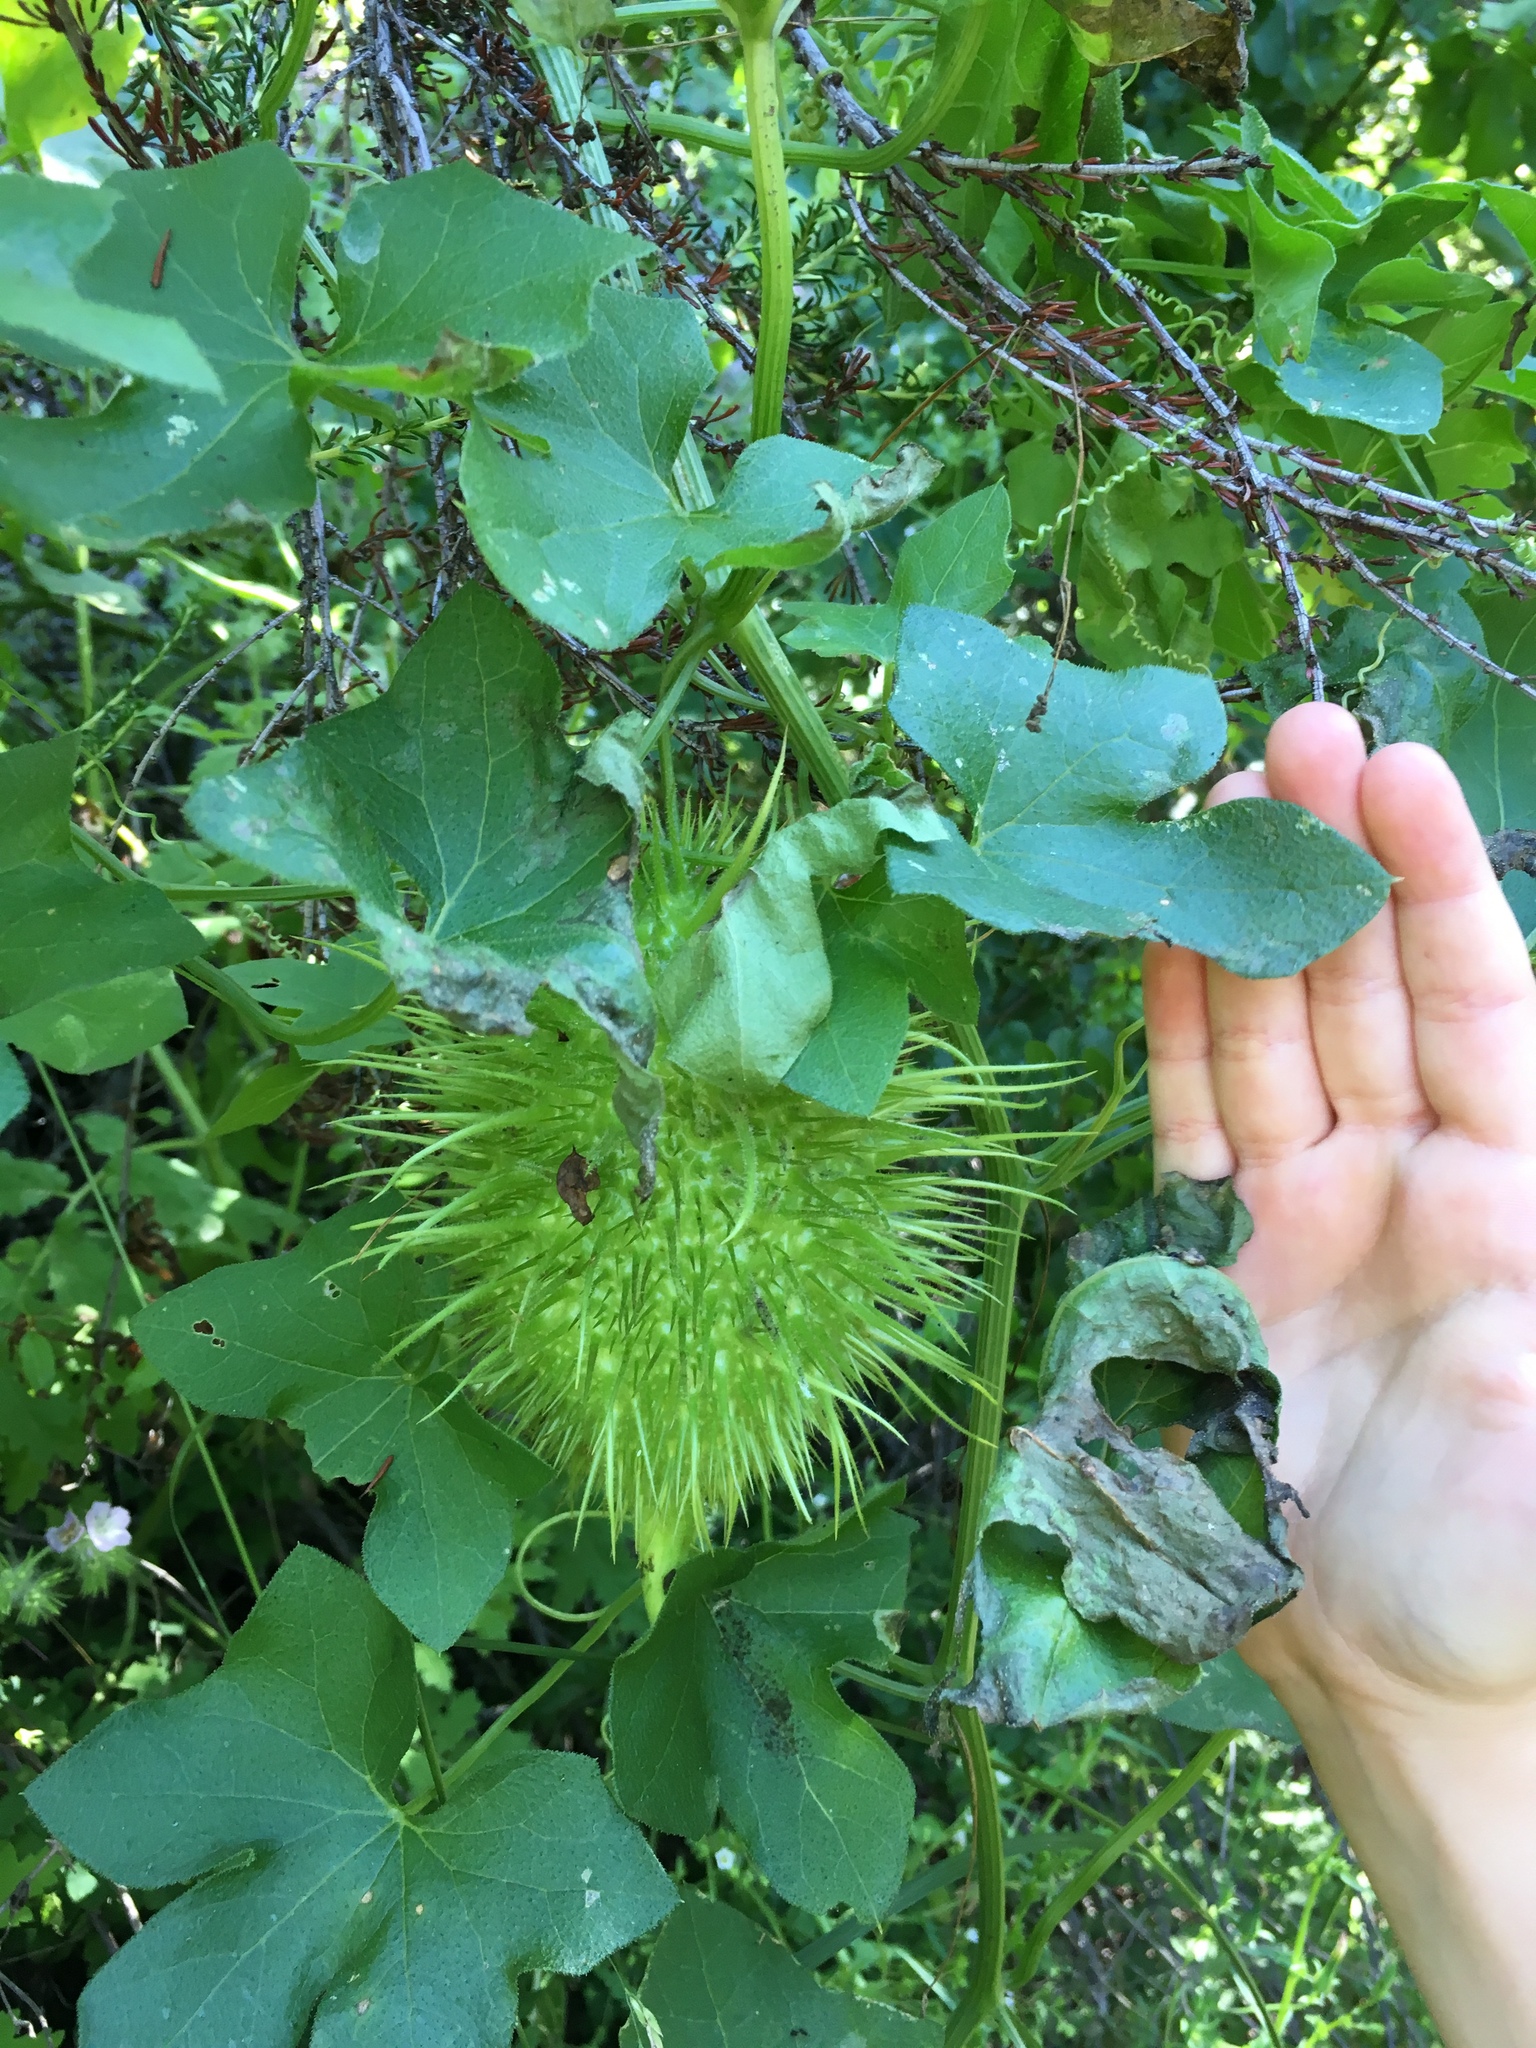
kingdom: Plantae
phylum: Tracheophyta
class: Magnoliopsida
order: Cucurbitales
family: Cucurbitaceae
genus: Marah
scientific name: Marah macrocarpa
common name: Cucamonga manroot
